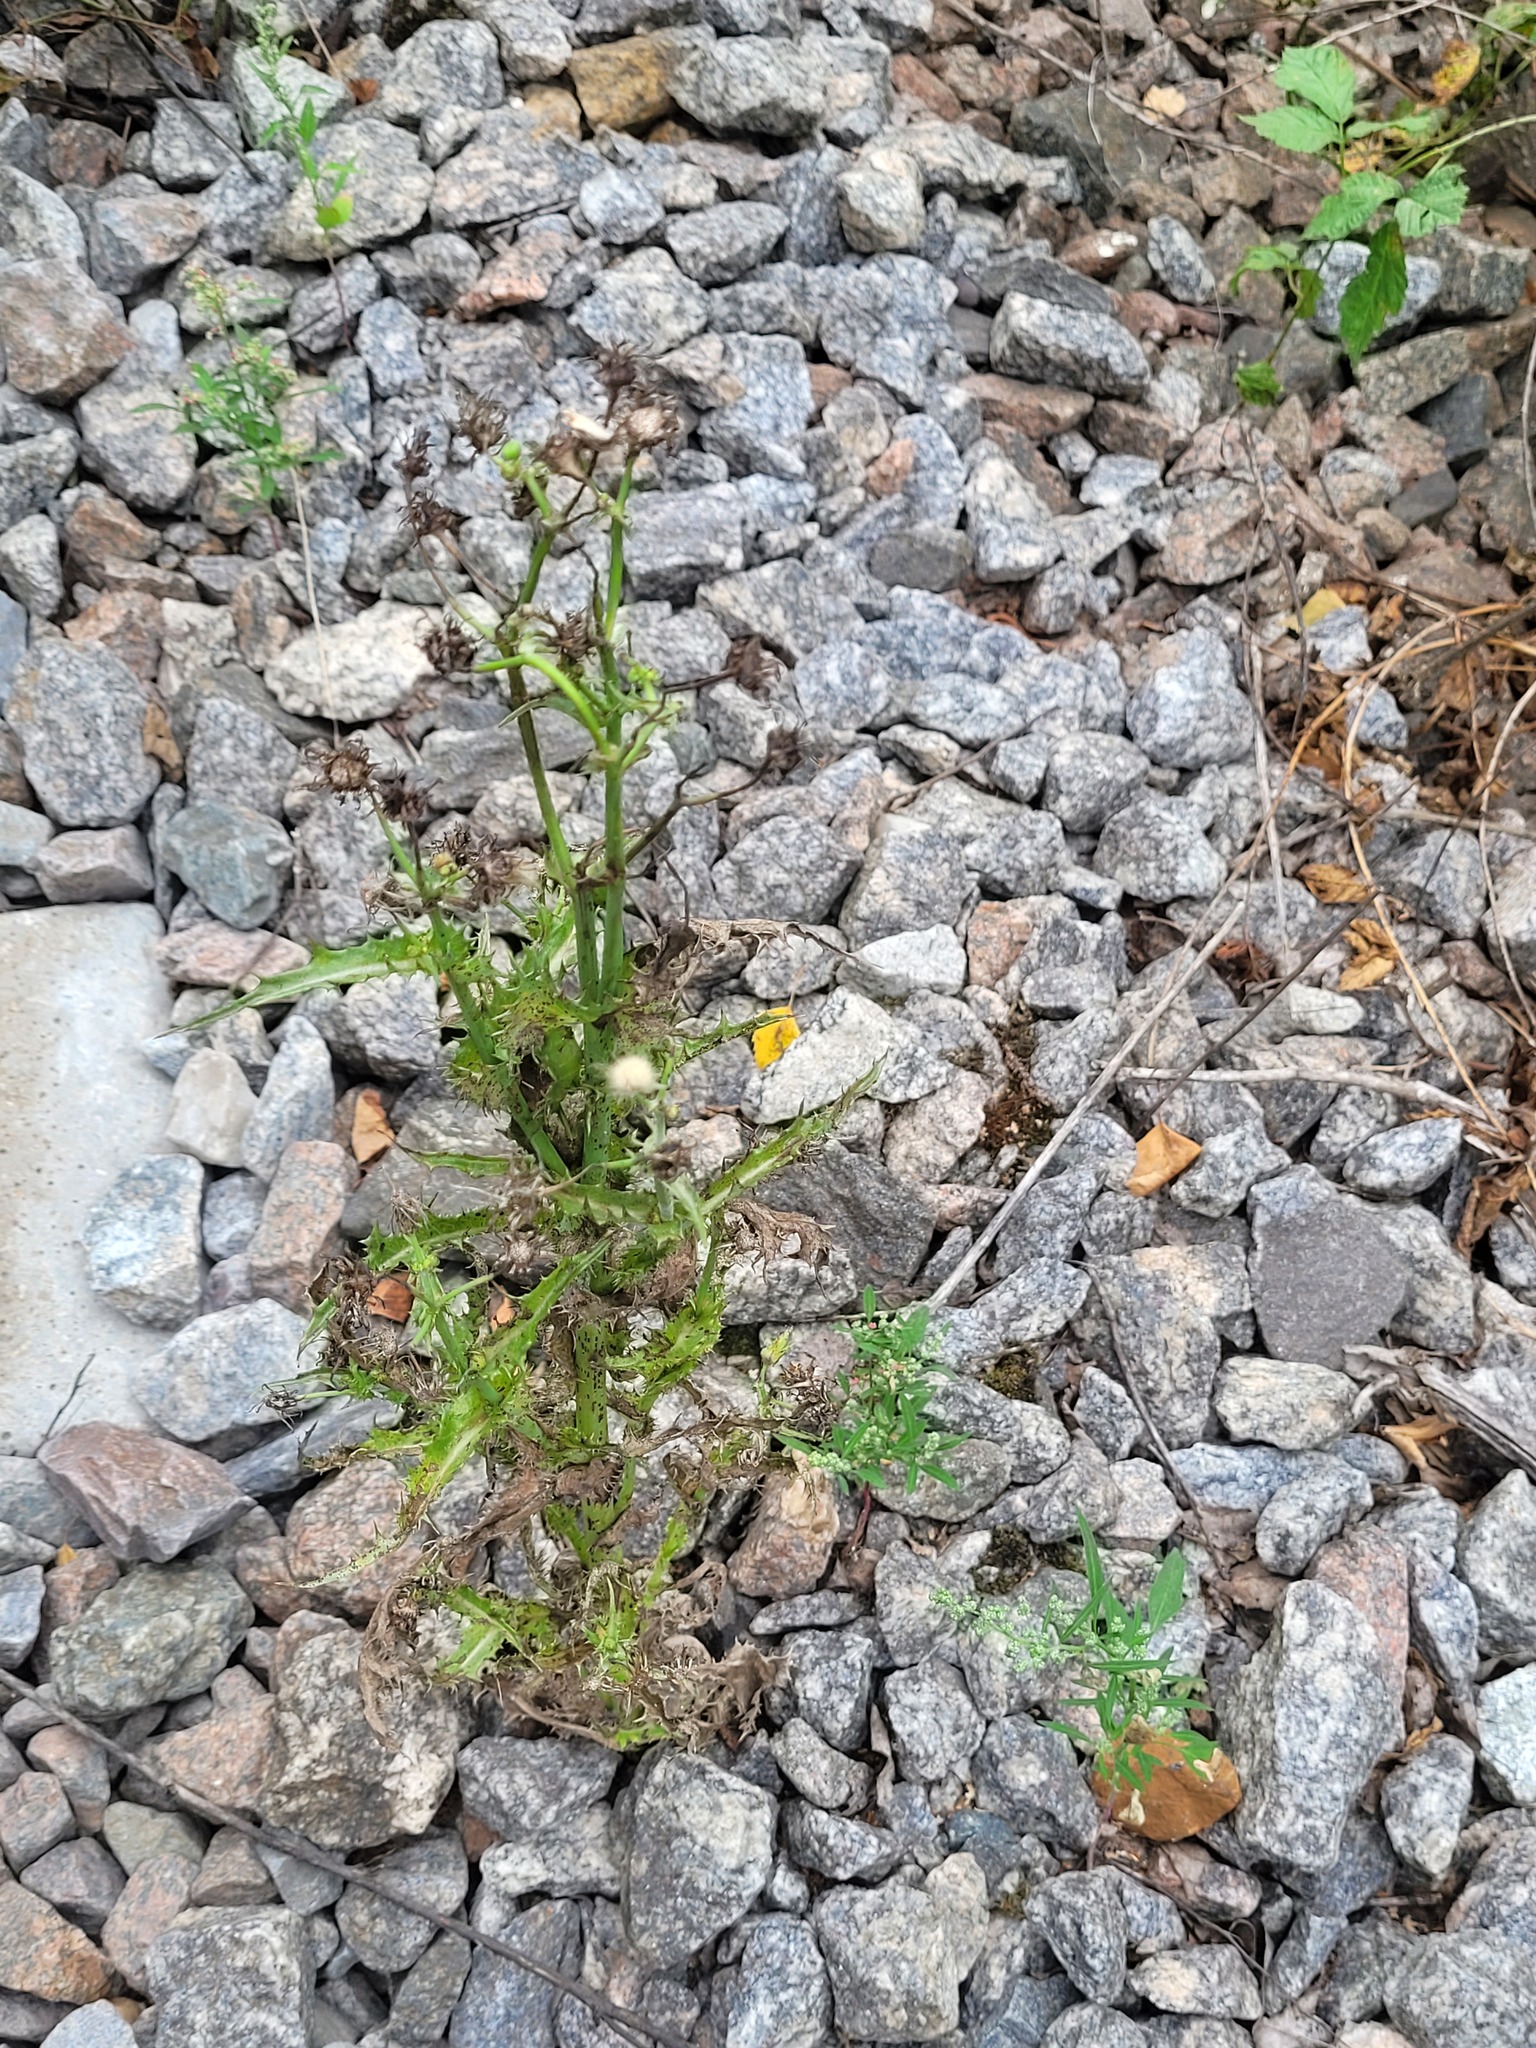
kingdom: Plantae
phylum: Tracheophyta
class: Magnoliopsida
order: Asterales
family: Asteraceae
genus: Sonchus
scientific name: Sonchus asper
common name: Prickly sow-thistle
